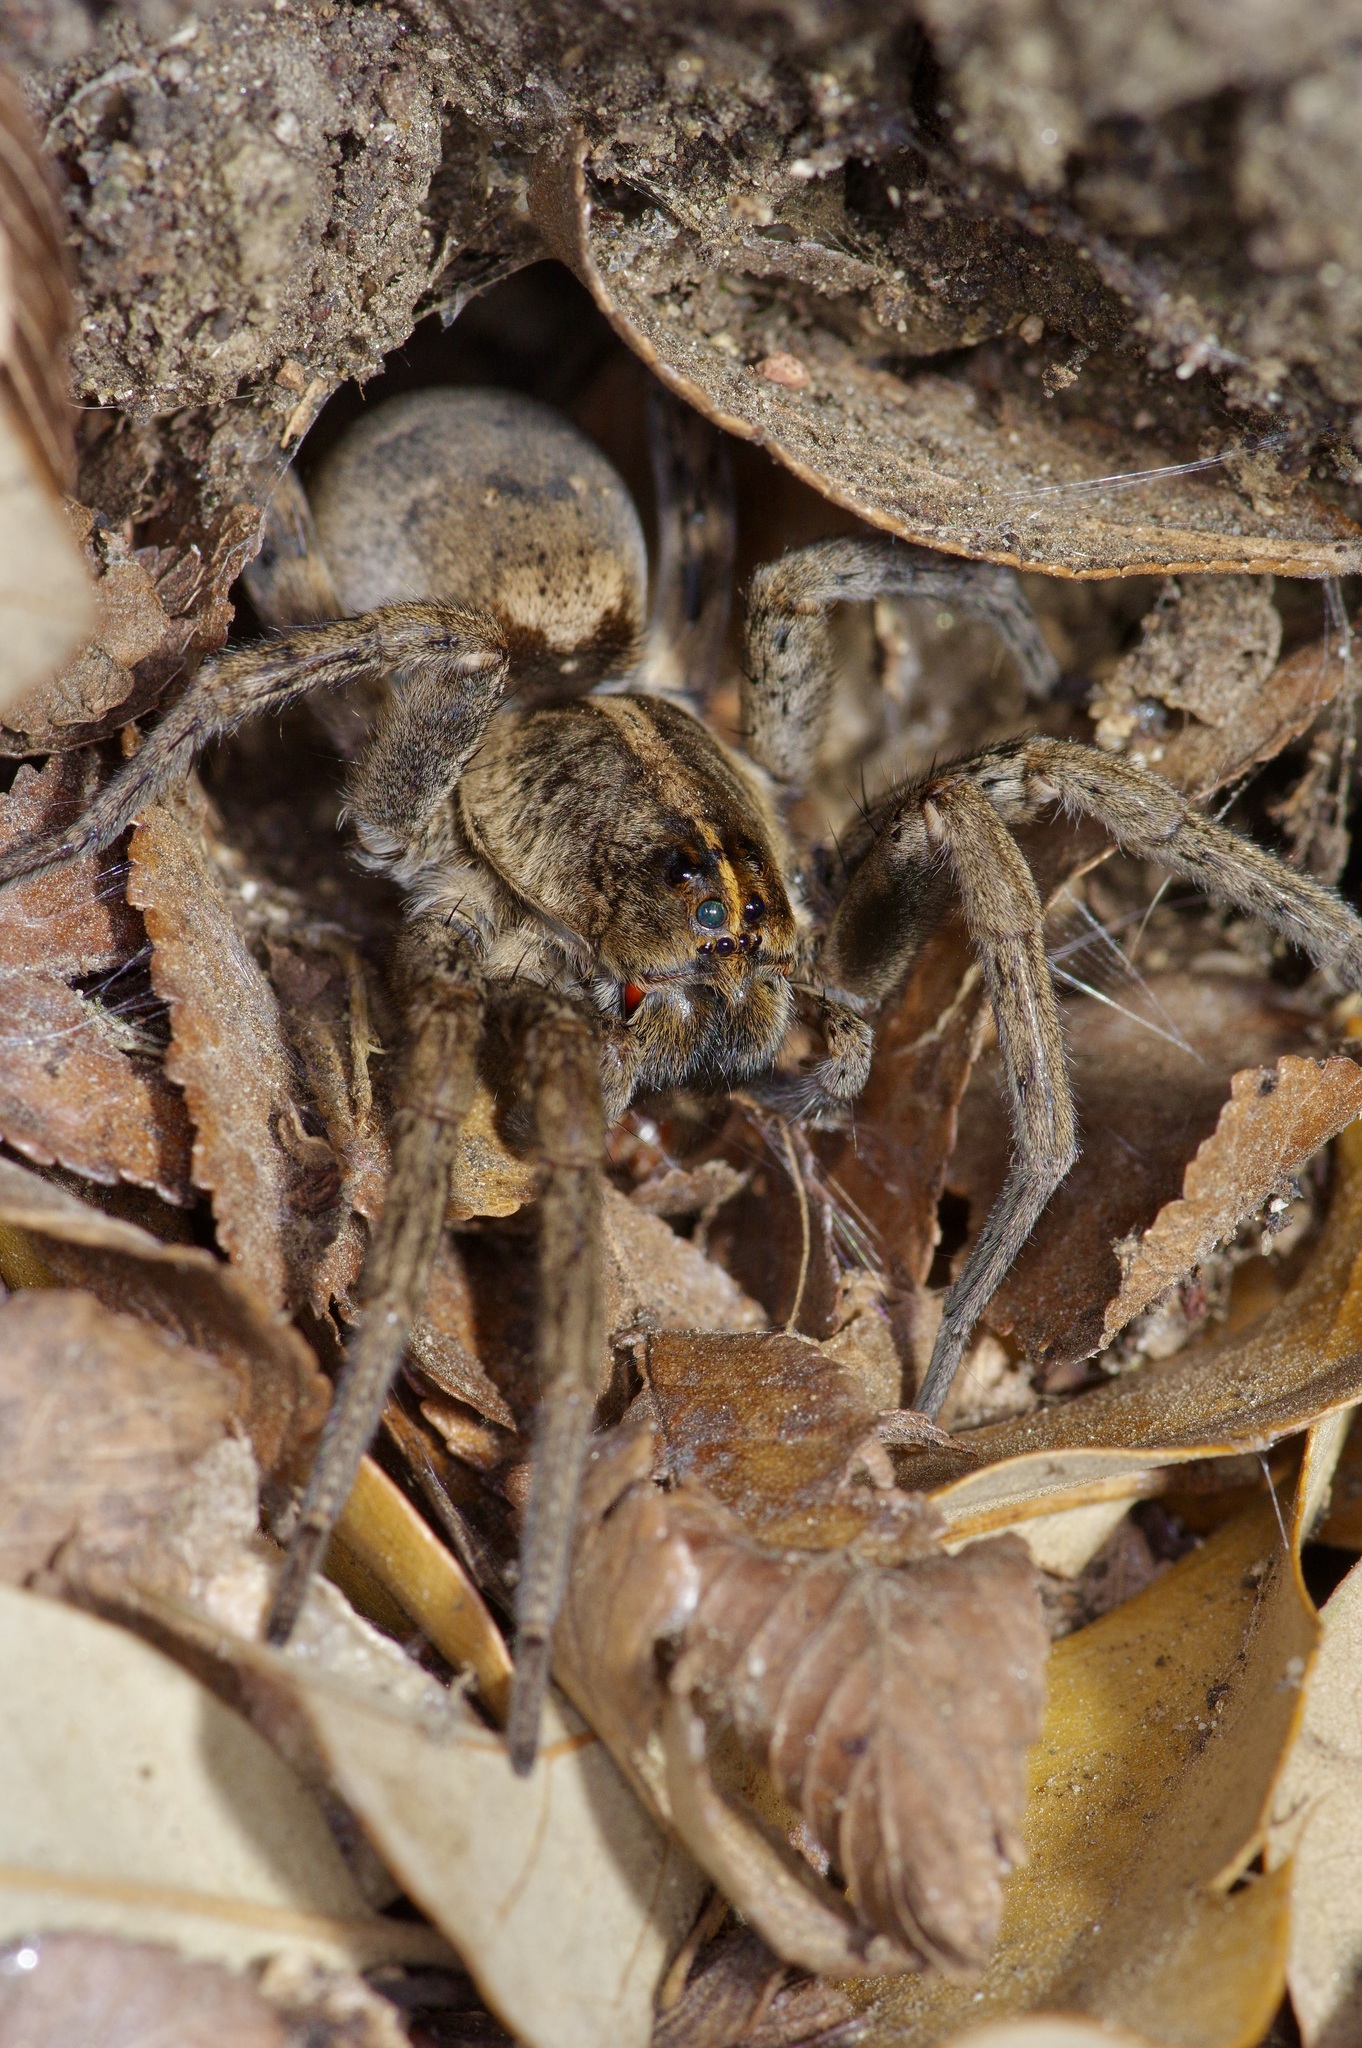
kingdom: Animalia
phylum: Arthropoda
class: Arachnida
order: Araneae
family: Lycosidae
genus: Tigrosa
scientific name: Tigrosa georgicola
